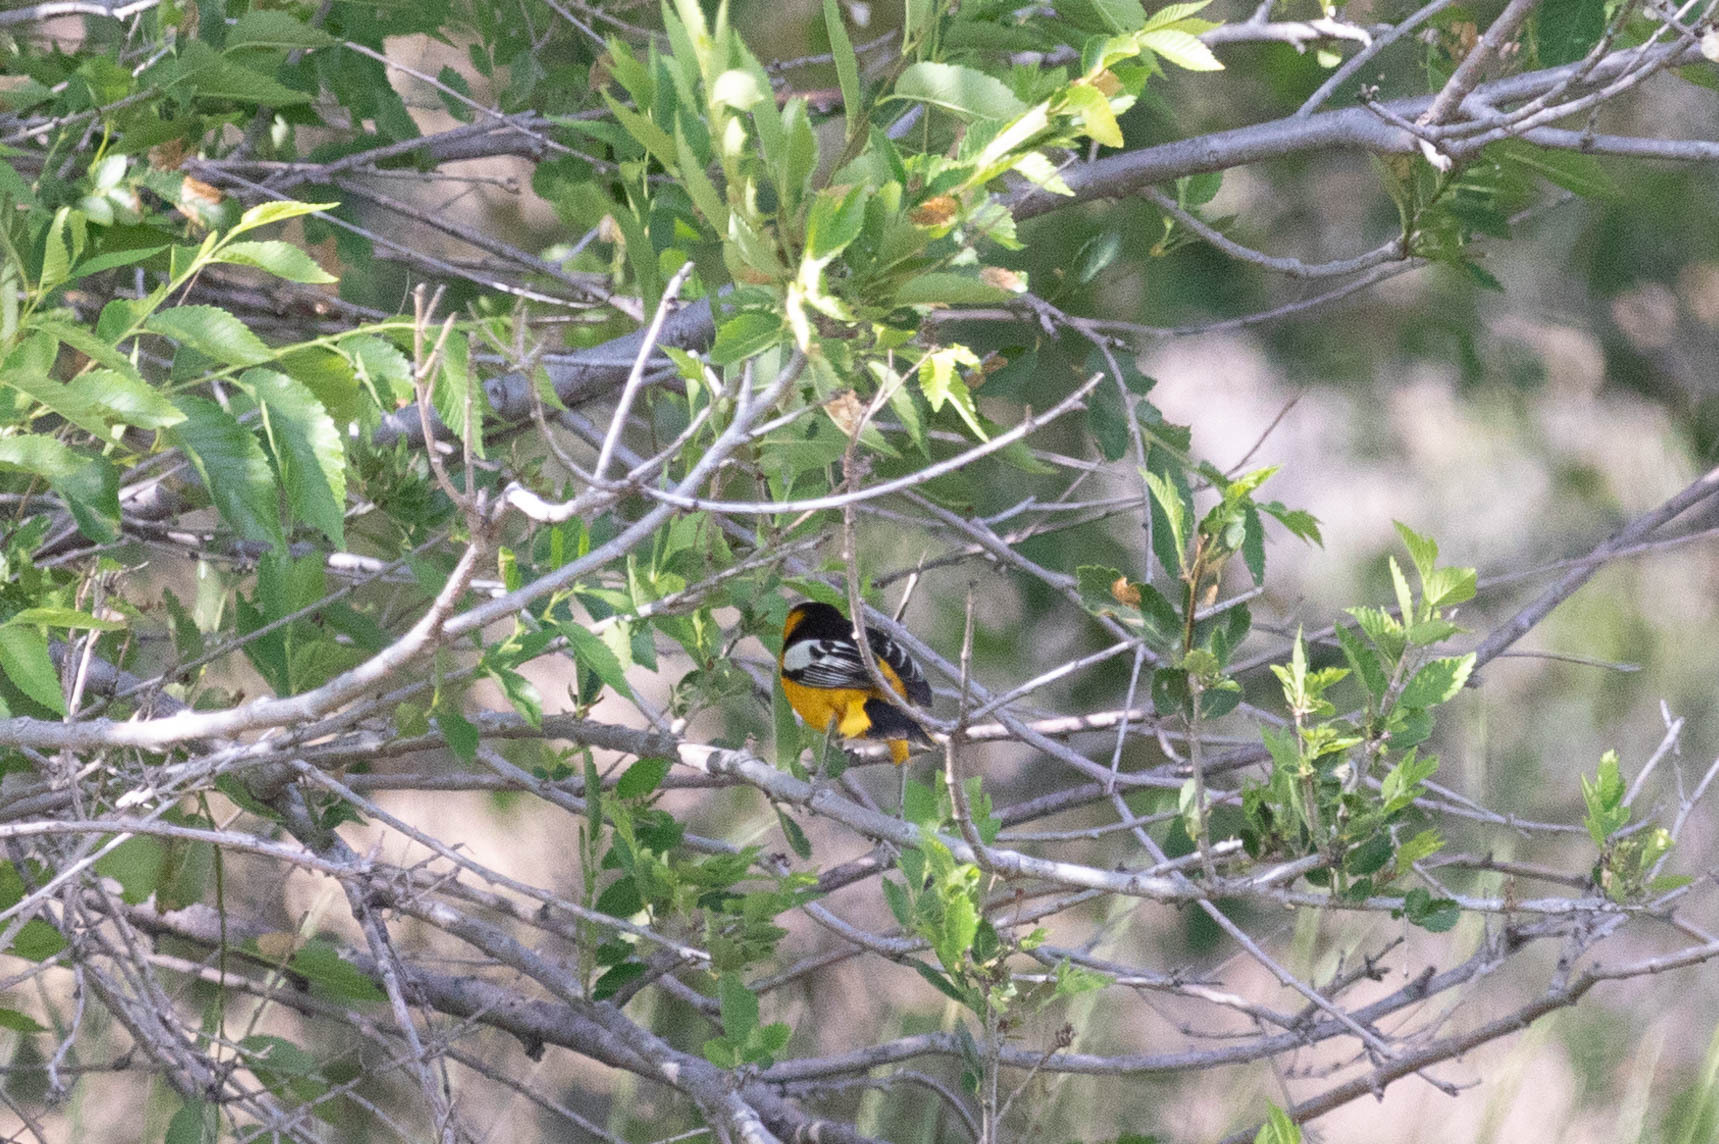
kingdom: Animalia
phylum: Chordata
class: Aves
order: Passeriformes
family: Icteridae
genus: Icterus
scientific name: Icterus bullockii
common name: Bullock's oriole
